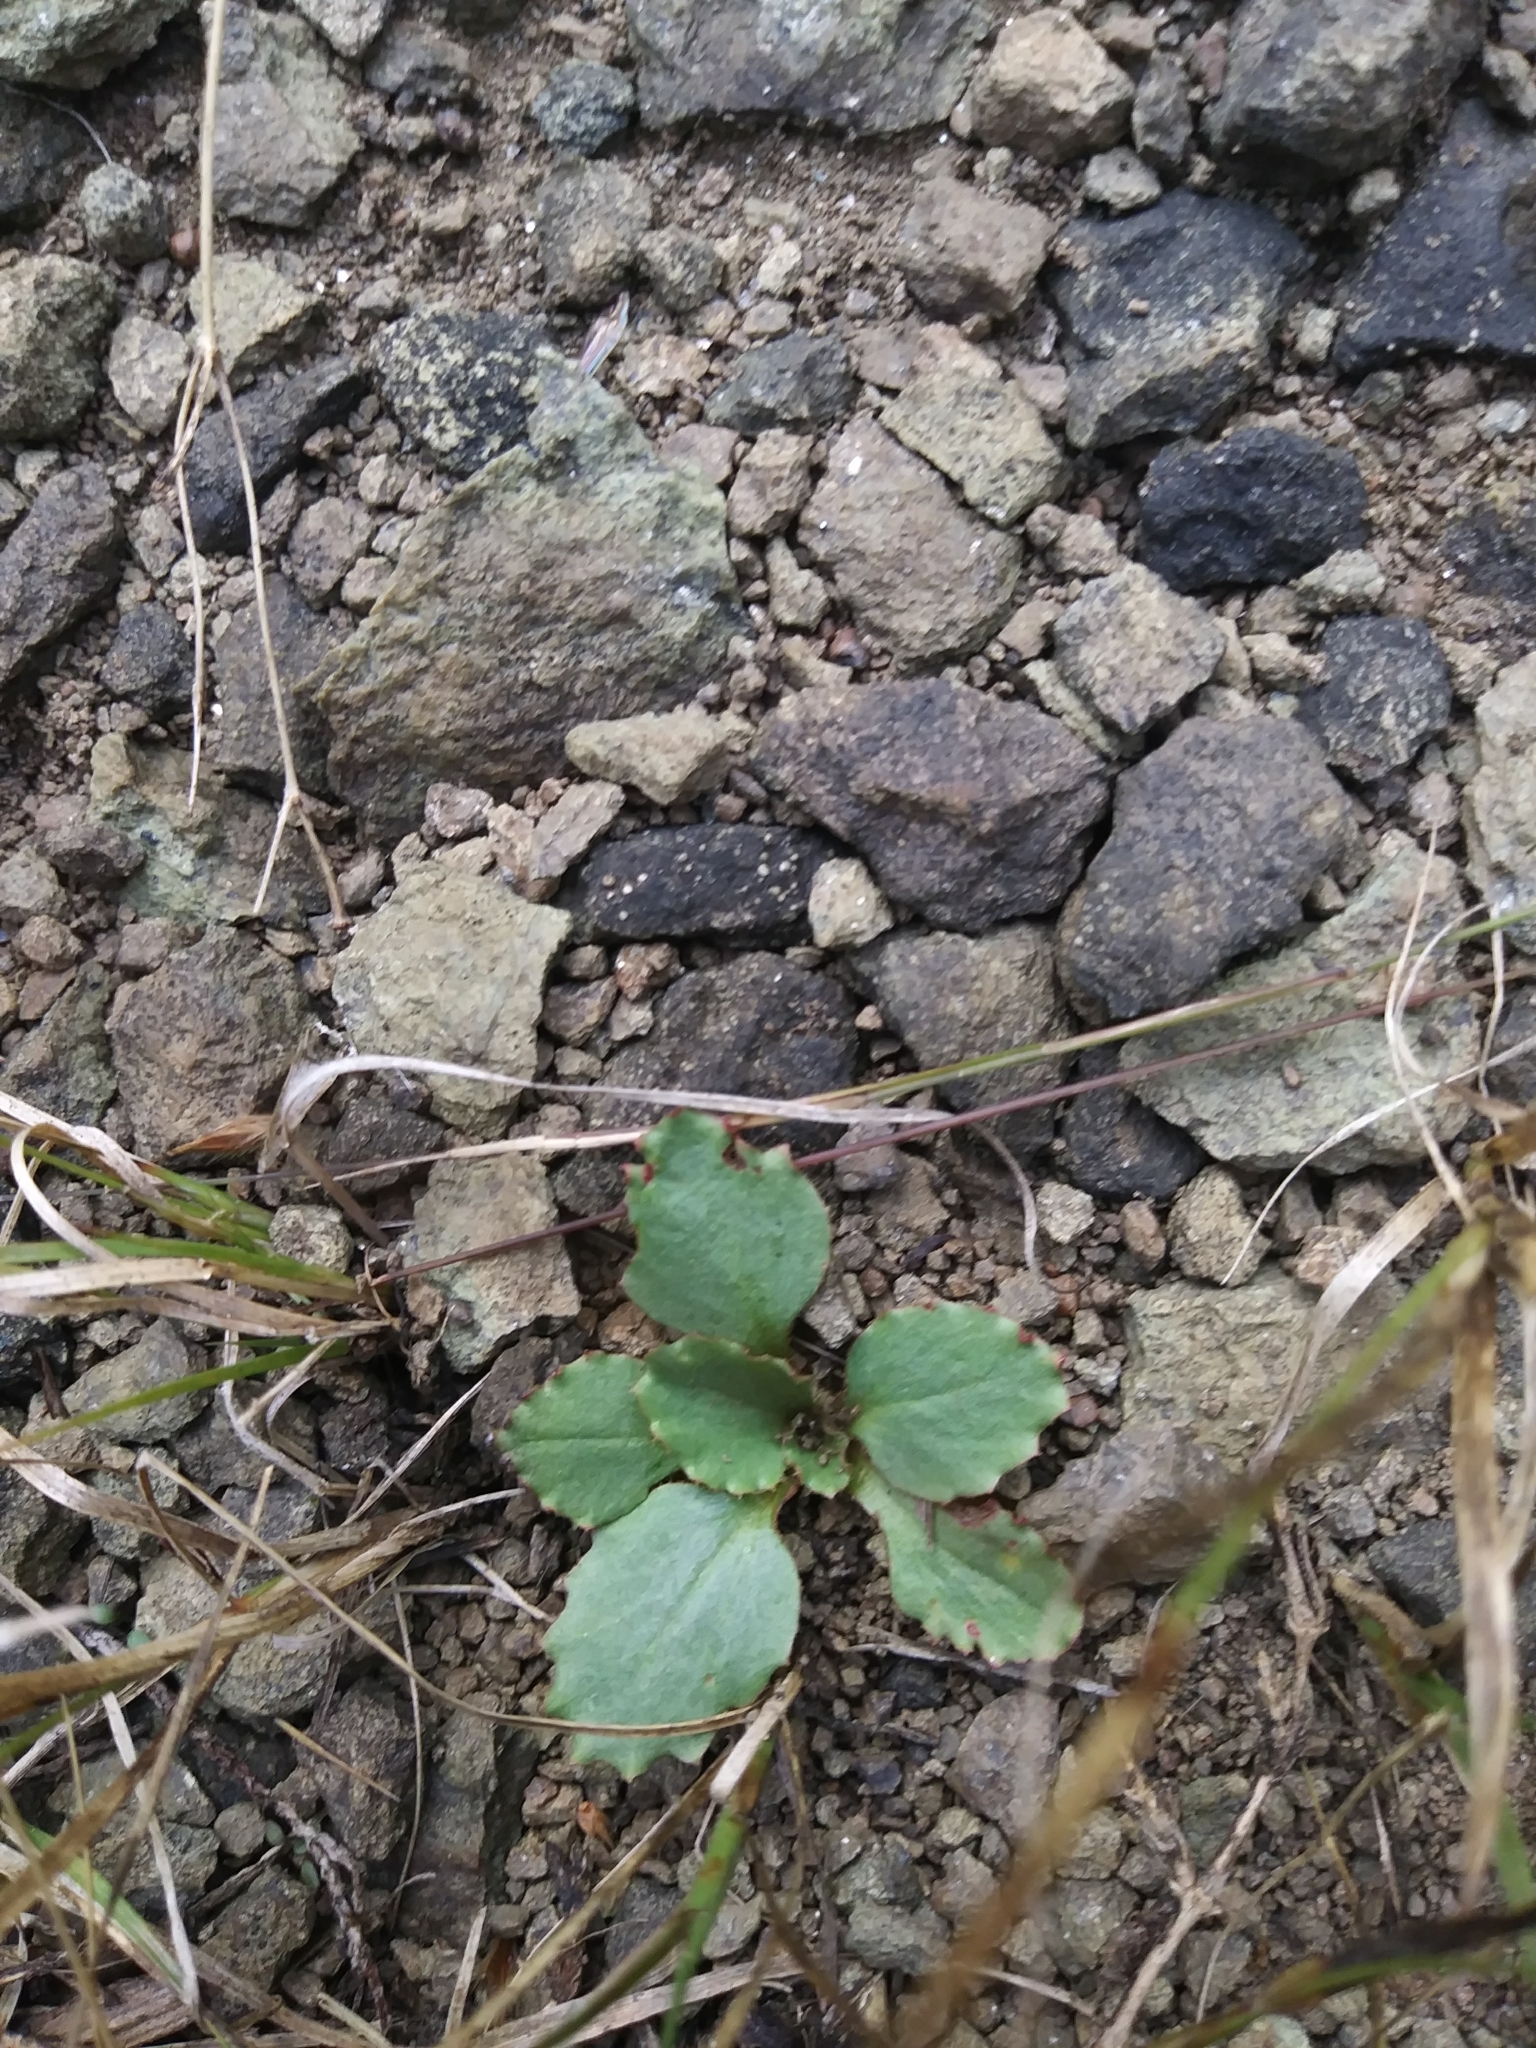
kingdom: Plantae
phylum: Tracheophyta
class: Magnoliopsida
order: Saxifragales
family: Saxifragaceae
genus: Micranthes
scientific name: Micranthes virginiensis
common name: Early saxifrage
